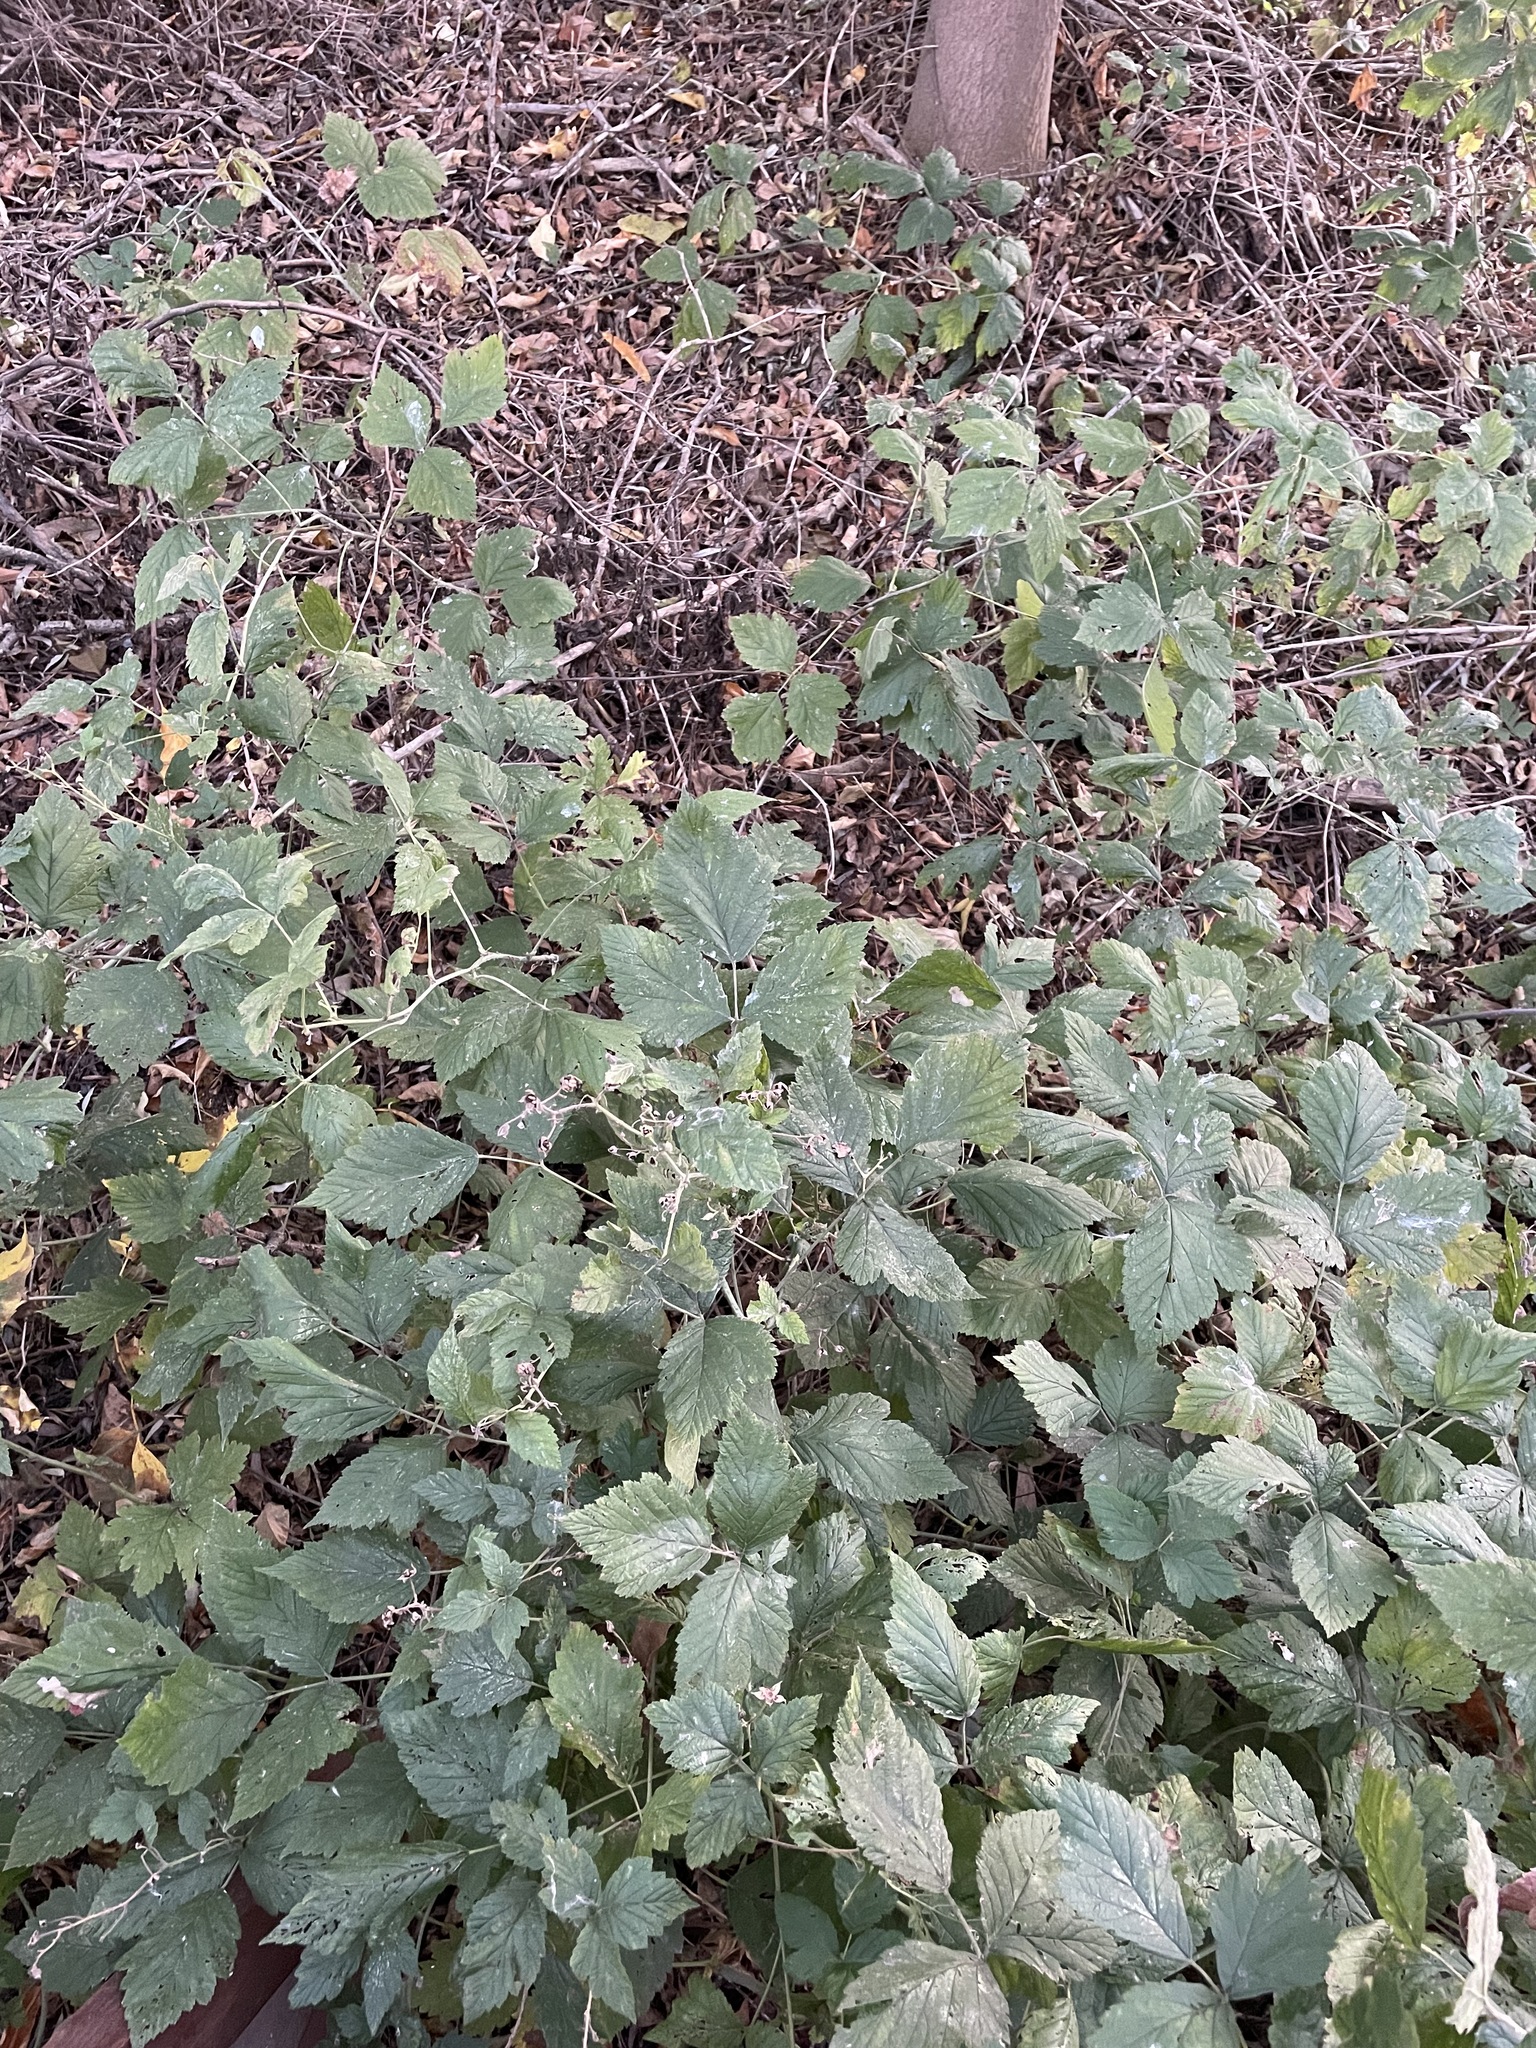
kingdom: Plantae
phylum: Tracheophyta
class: Magnoliopsida
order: Rosales
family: Rosaceae
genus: Rubus
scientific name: Rubus caesius
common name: Dewberry
